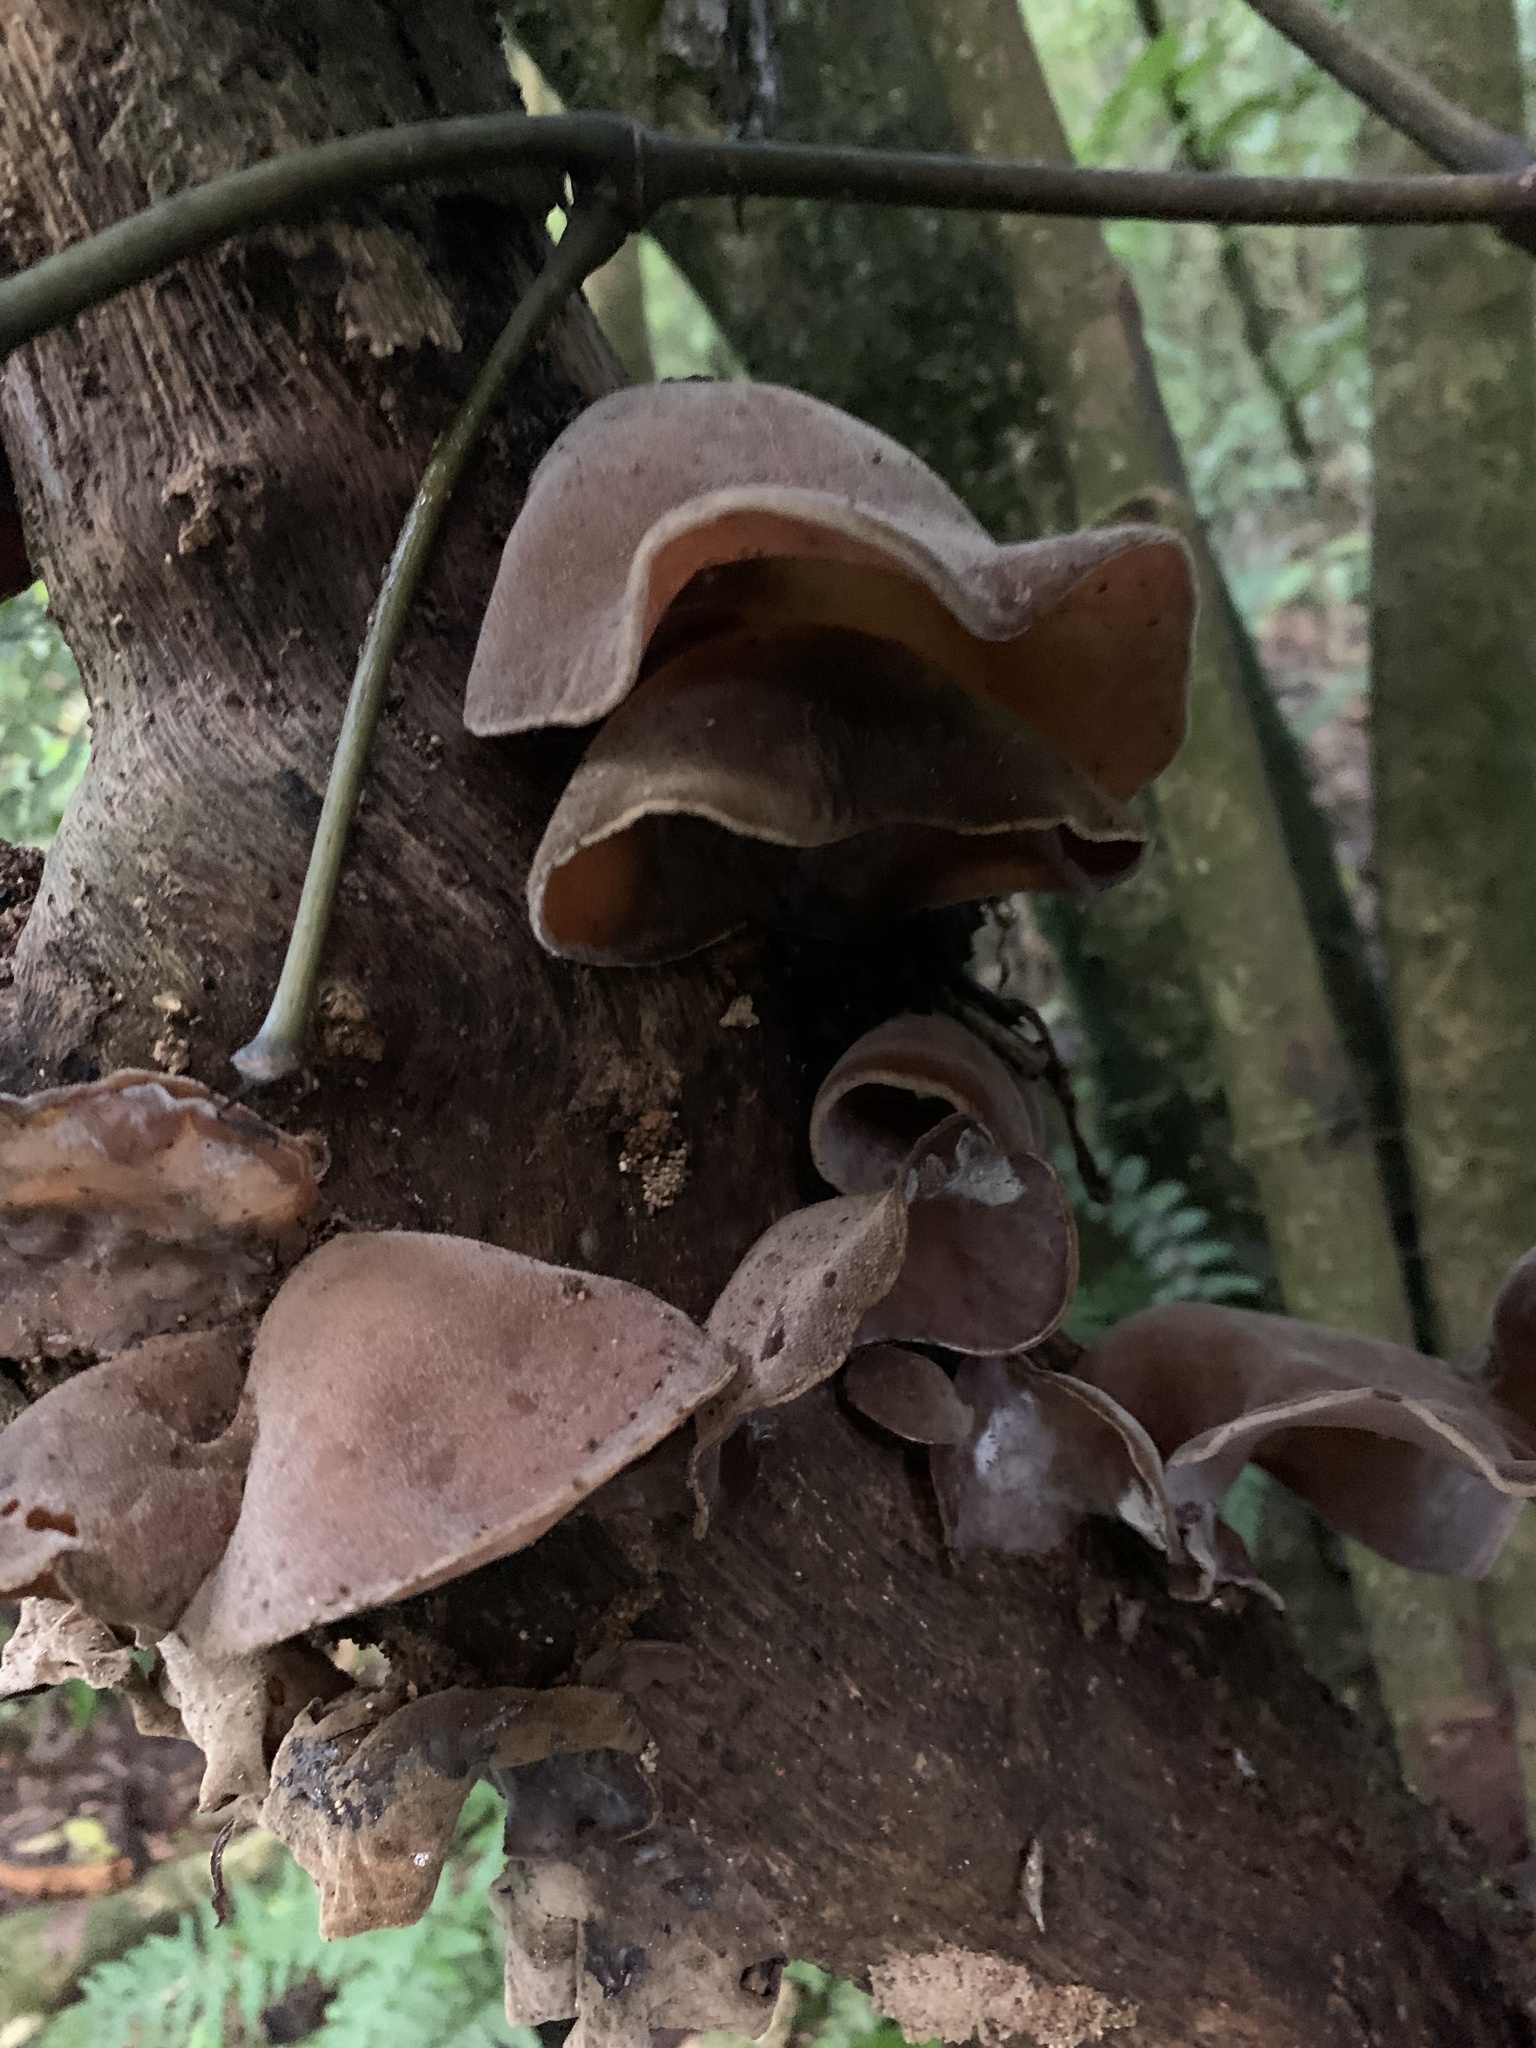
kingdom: Fungi
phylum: Basidiomycota
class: Agaricomycetes
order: Auriculariales
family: Auriculariaceae
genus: Auricularia
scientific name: Auricularia cornea
